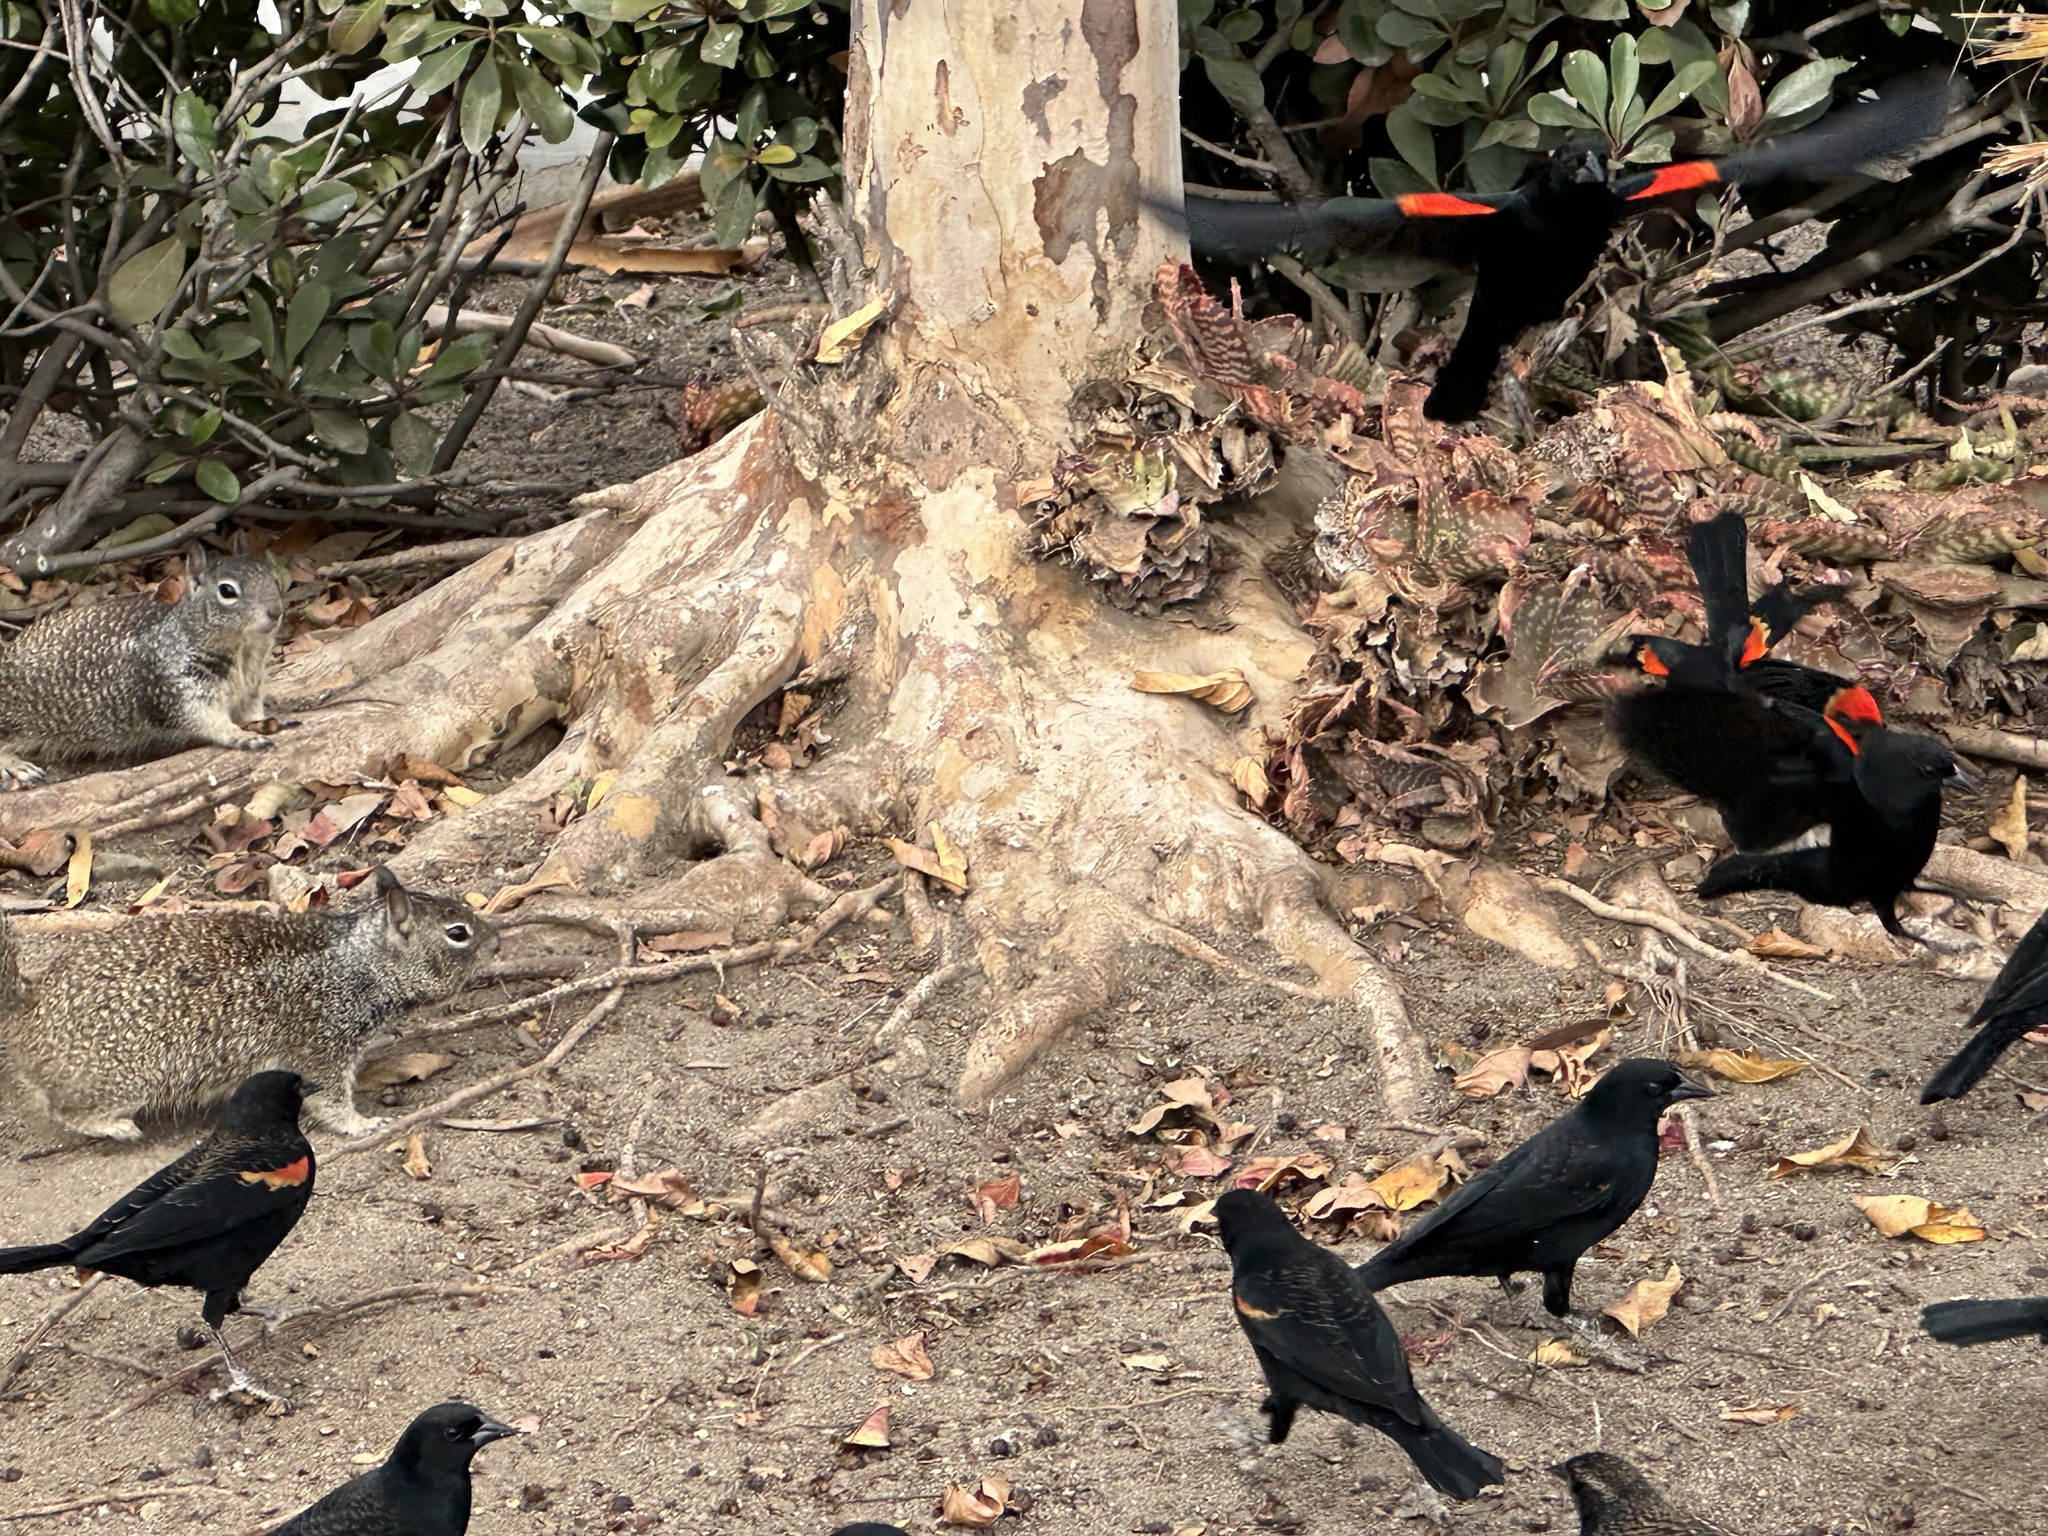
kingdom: Animalia
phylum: Chordata
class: Aves
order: Passeriformes
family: Icteridae
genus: Agelaius
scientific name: Agelaius phoeniceus
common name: Red-winged blackbird
